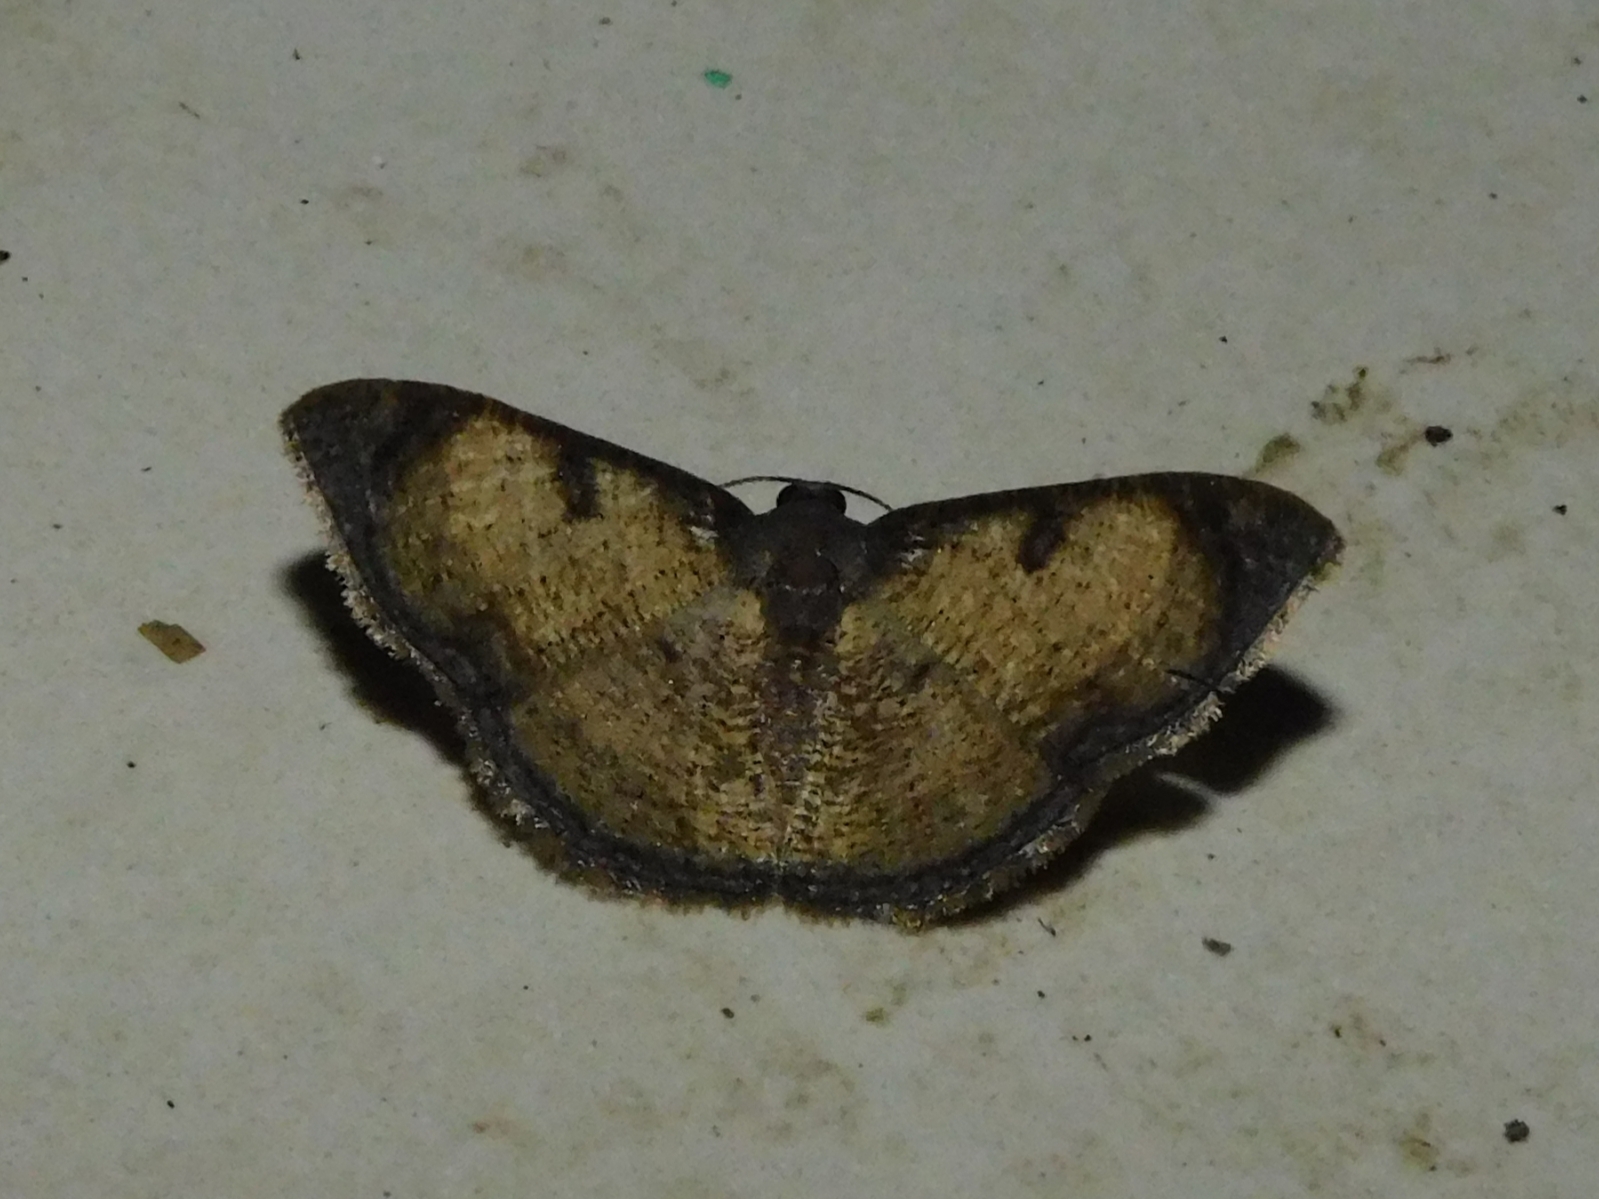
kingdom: Animalia
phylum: Arthropoda
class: Insecta
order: Lepidoptera
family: Geometridae
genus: Hydatocapnia
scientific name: Hydatocapnia marginata
